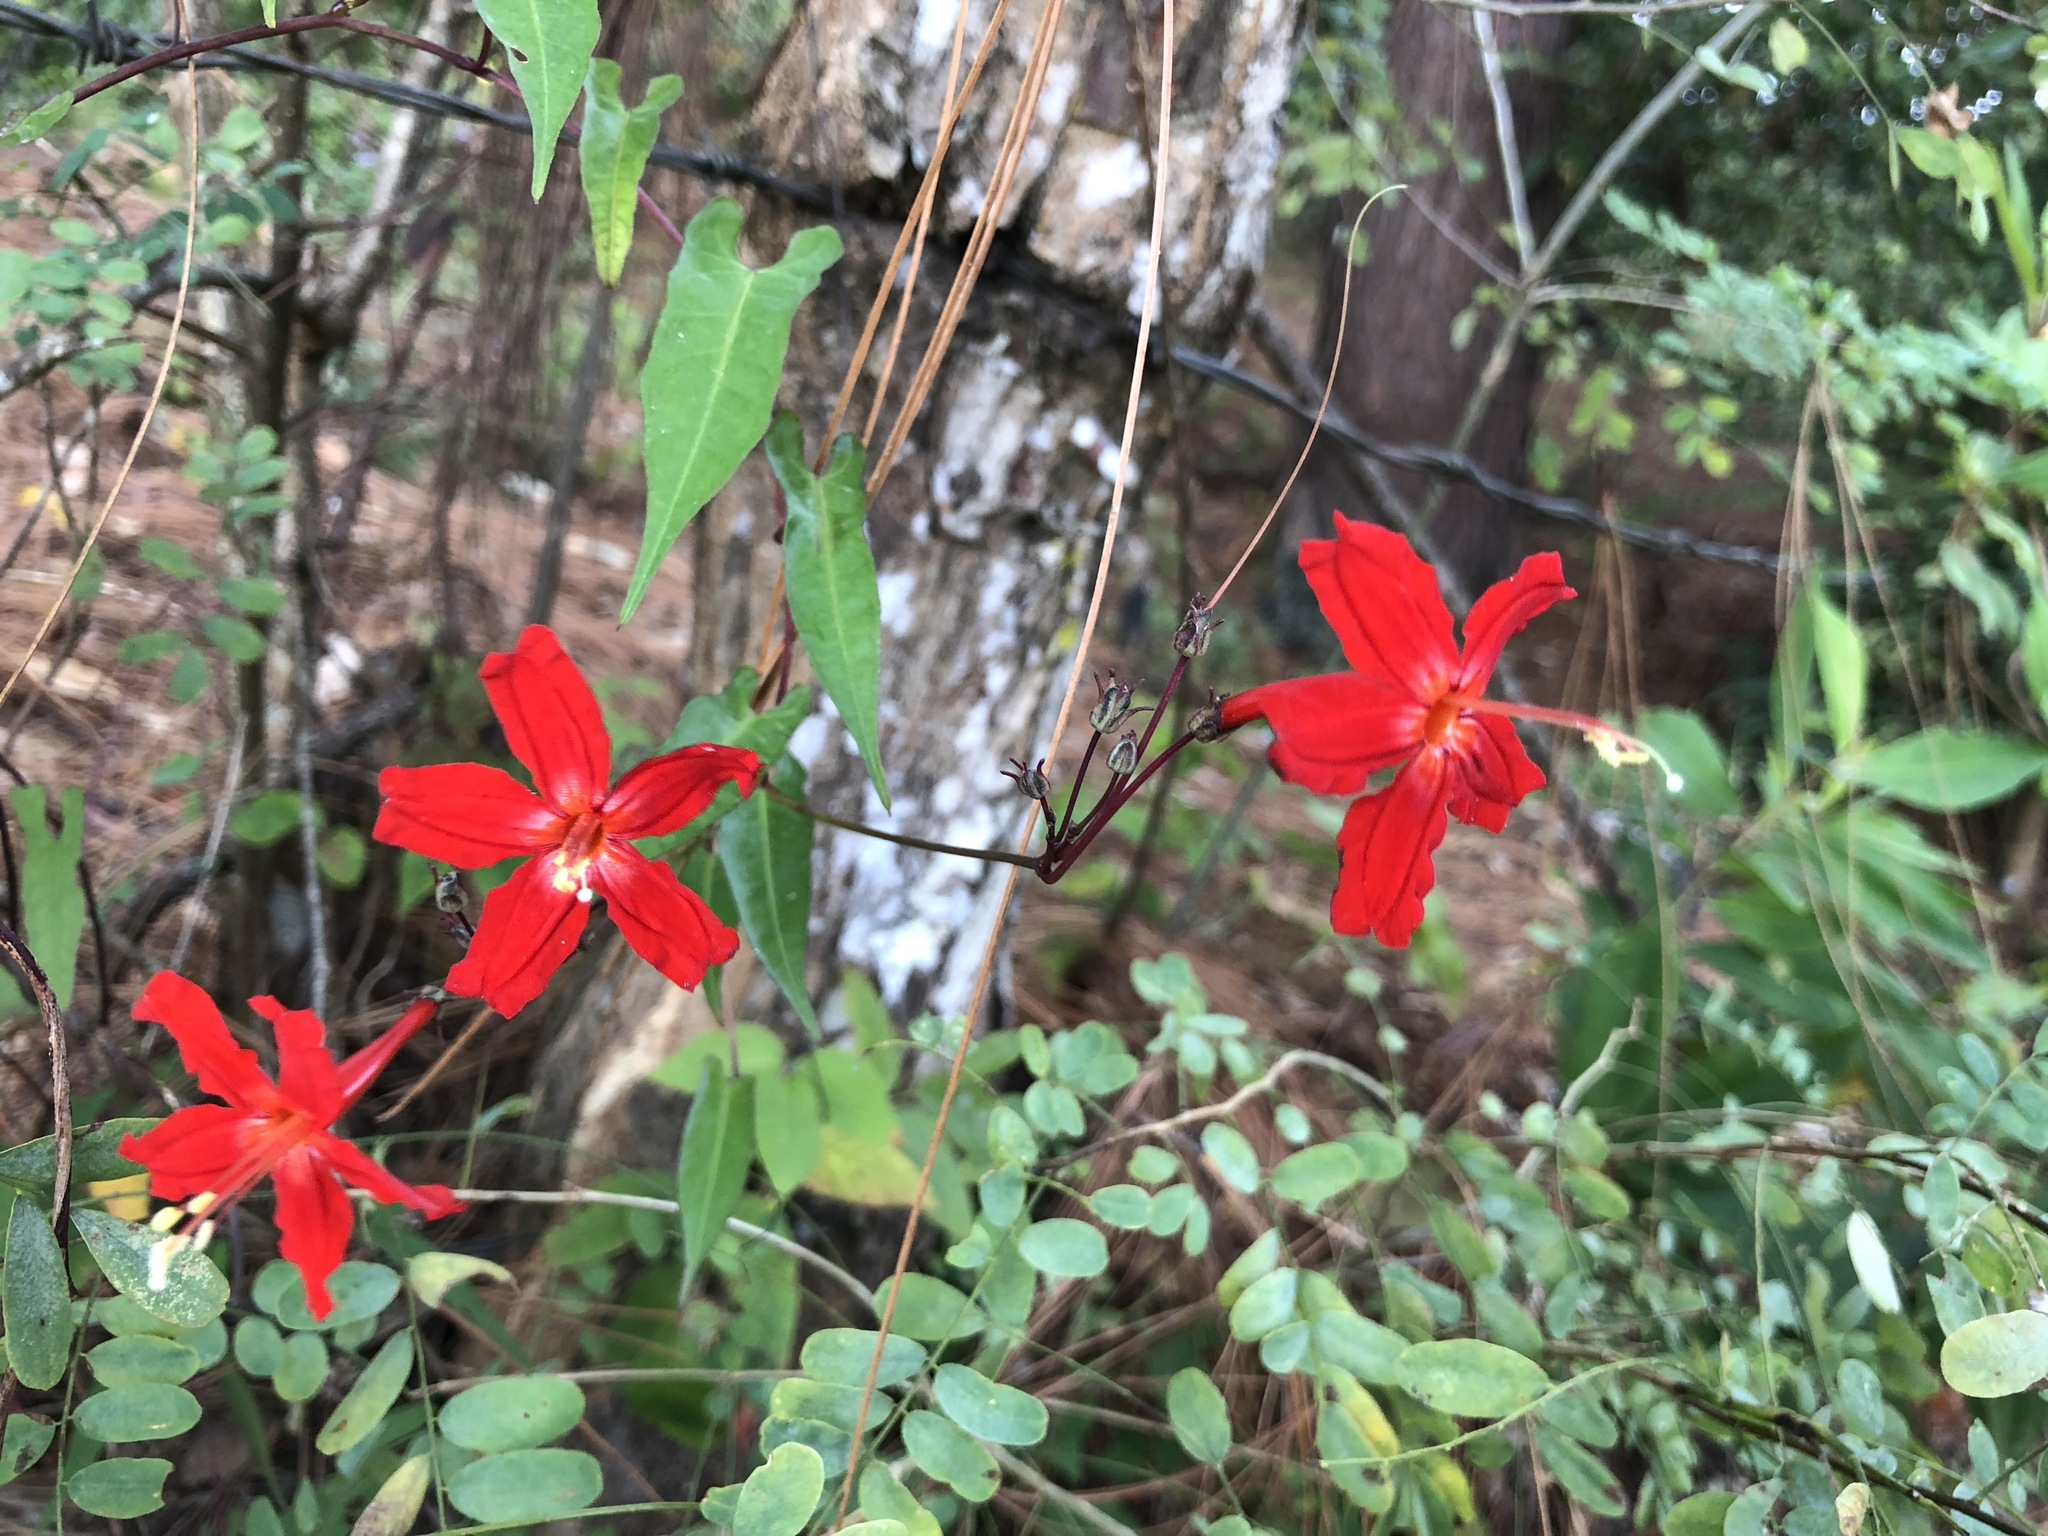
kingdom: Plantae
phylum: Tracheophyta
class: Magnoliopsida
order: Solanales
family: Convolvulaceae
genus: Ipomoea
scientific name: Ipomoea spectata
